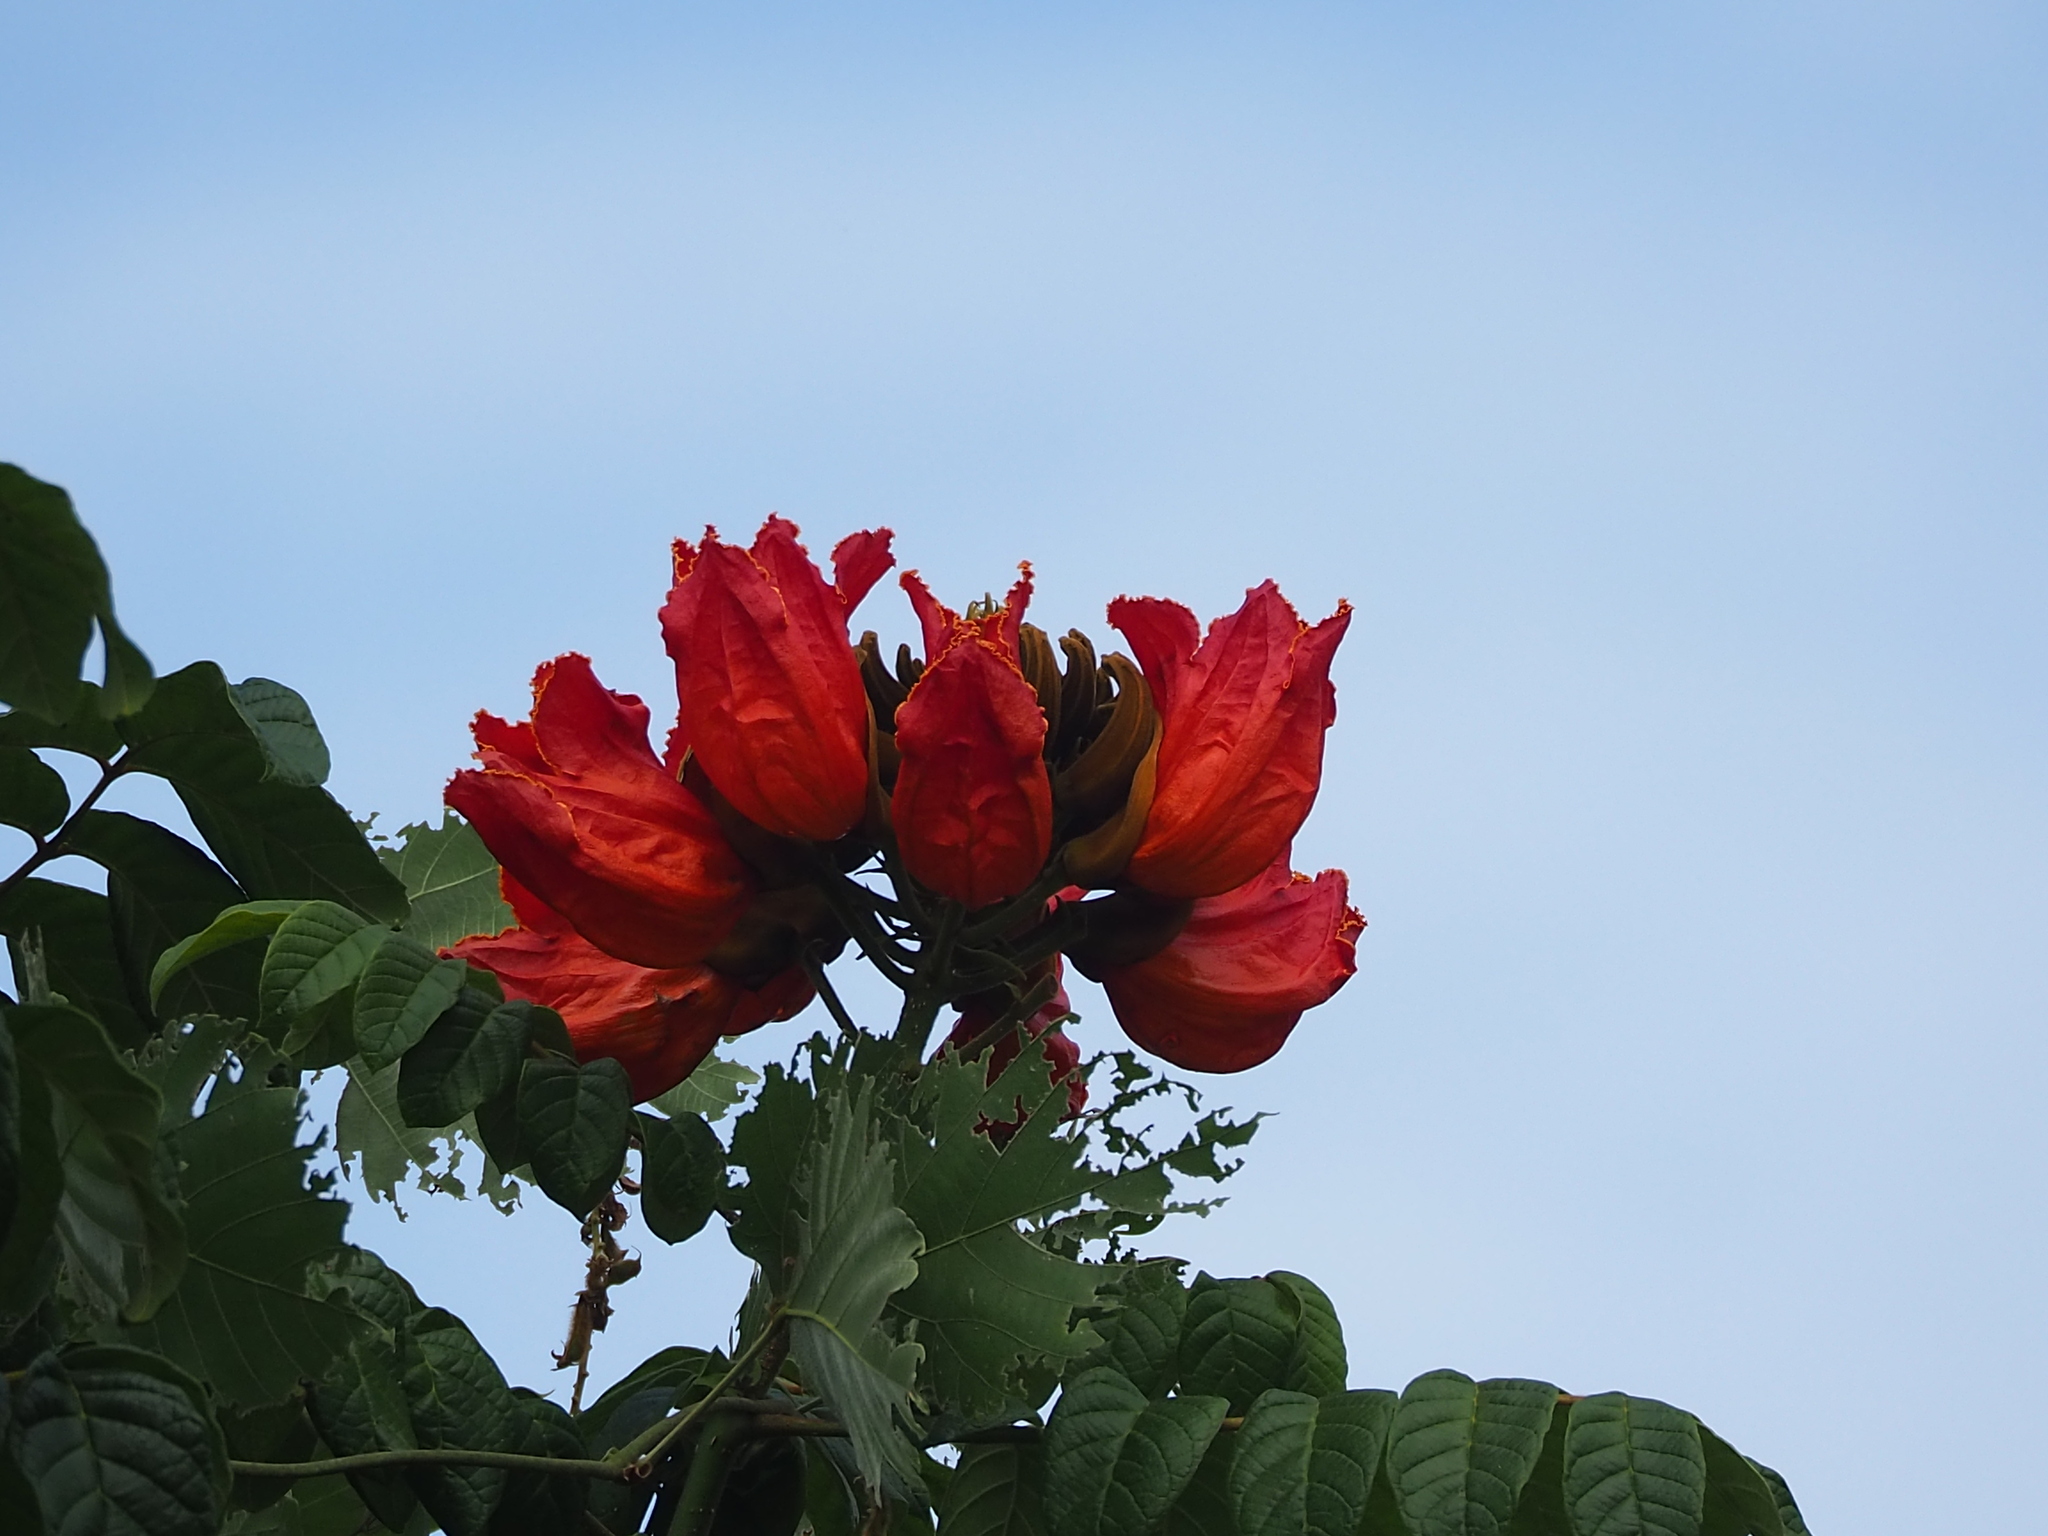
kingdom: Plantae
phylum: Tracheophyta
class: Magnoliopsida
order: Lamiales
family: Bignoniaceae
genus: Spathodea
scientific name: Spathodea campanulata
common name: African tuliptree
